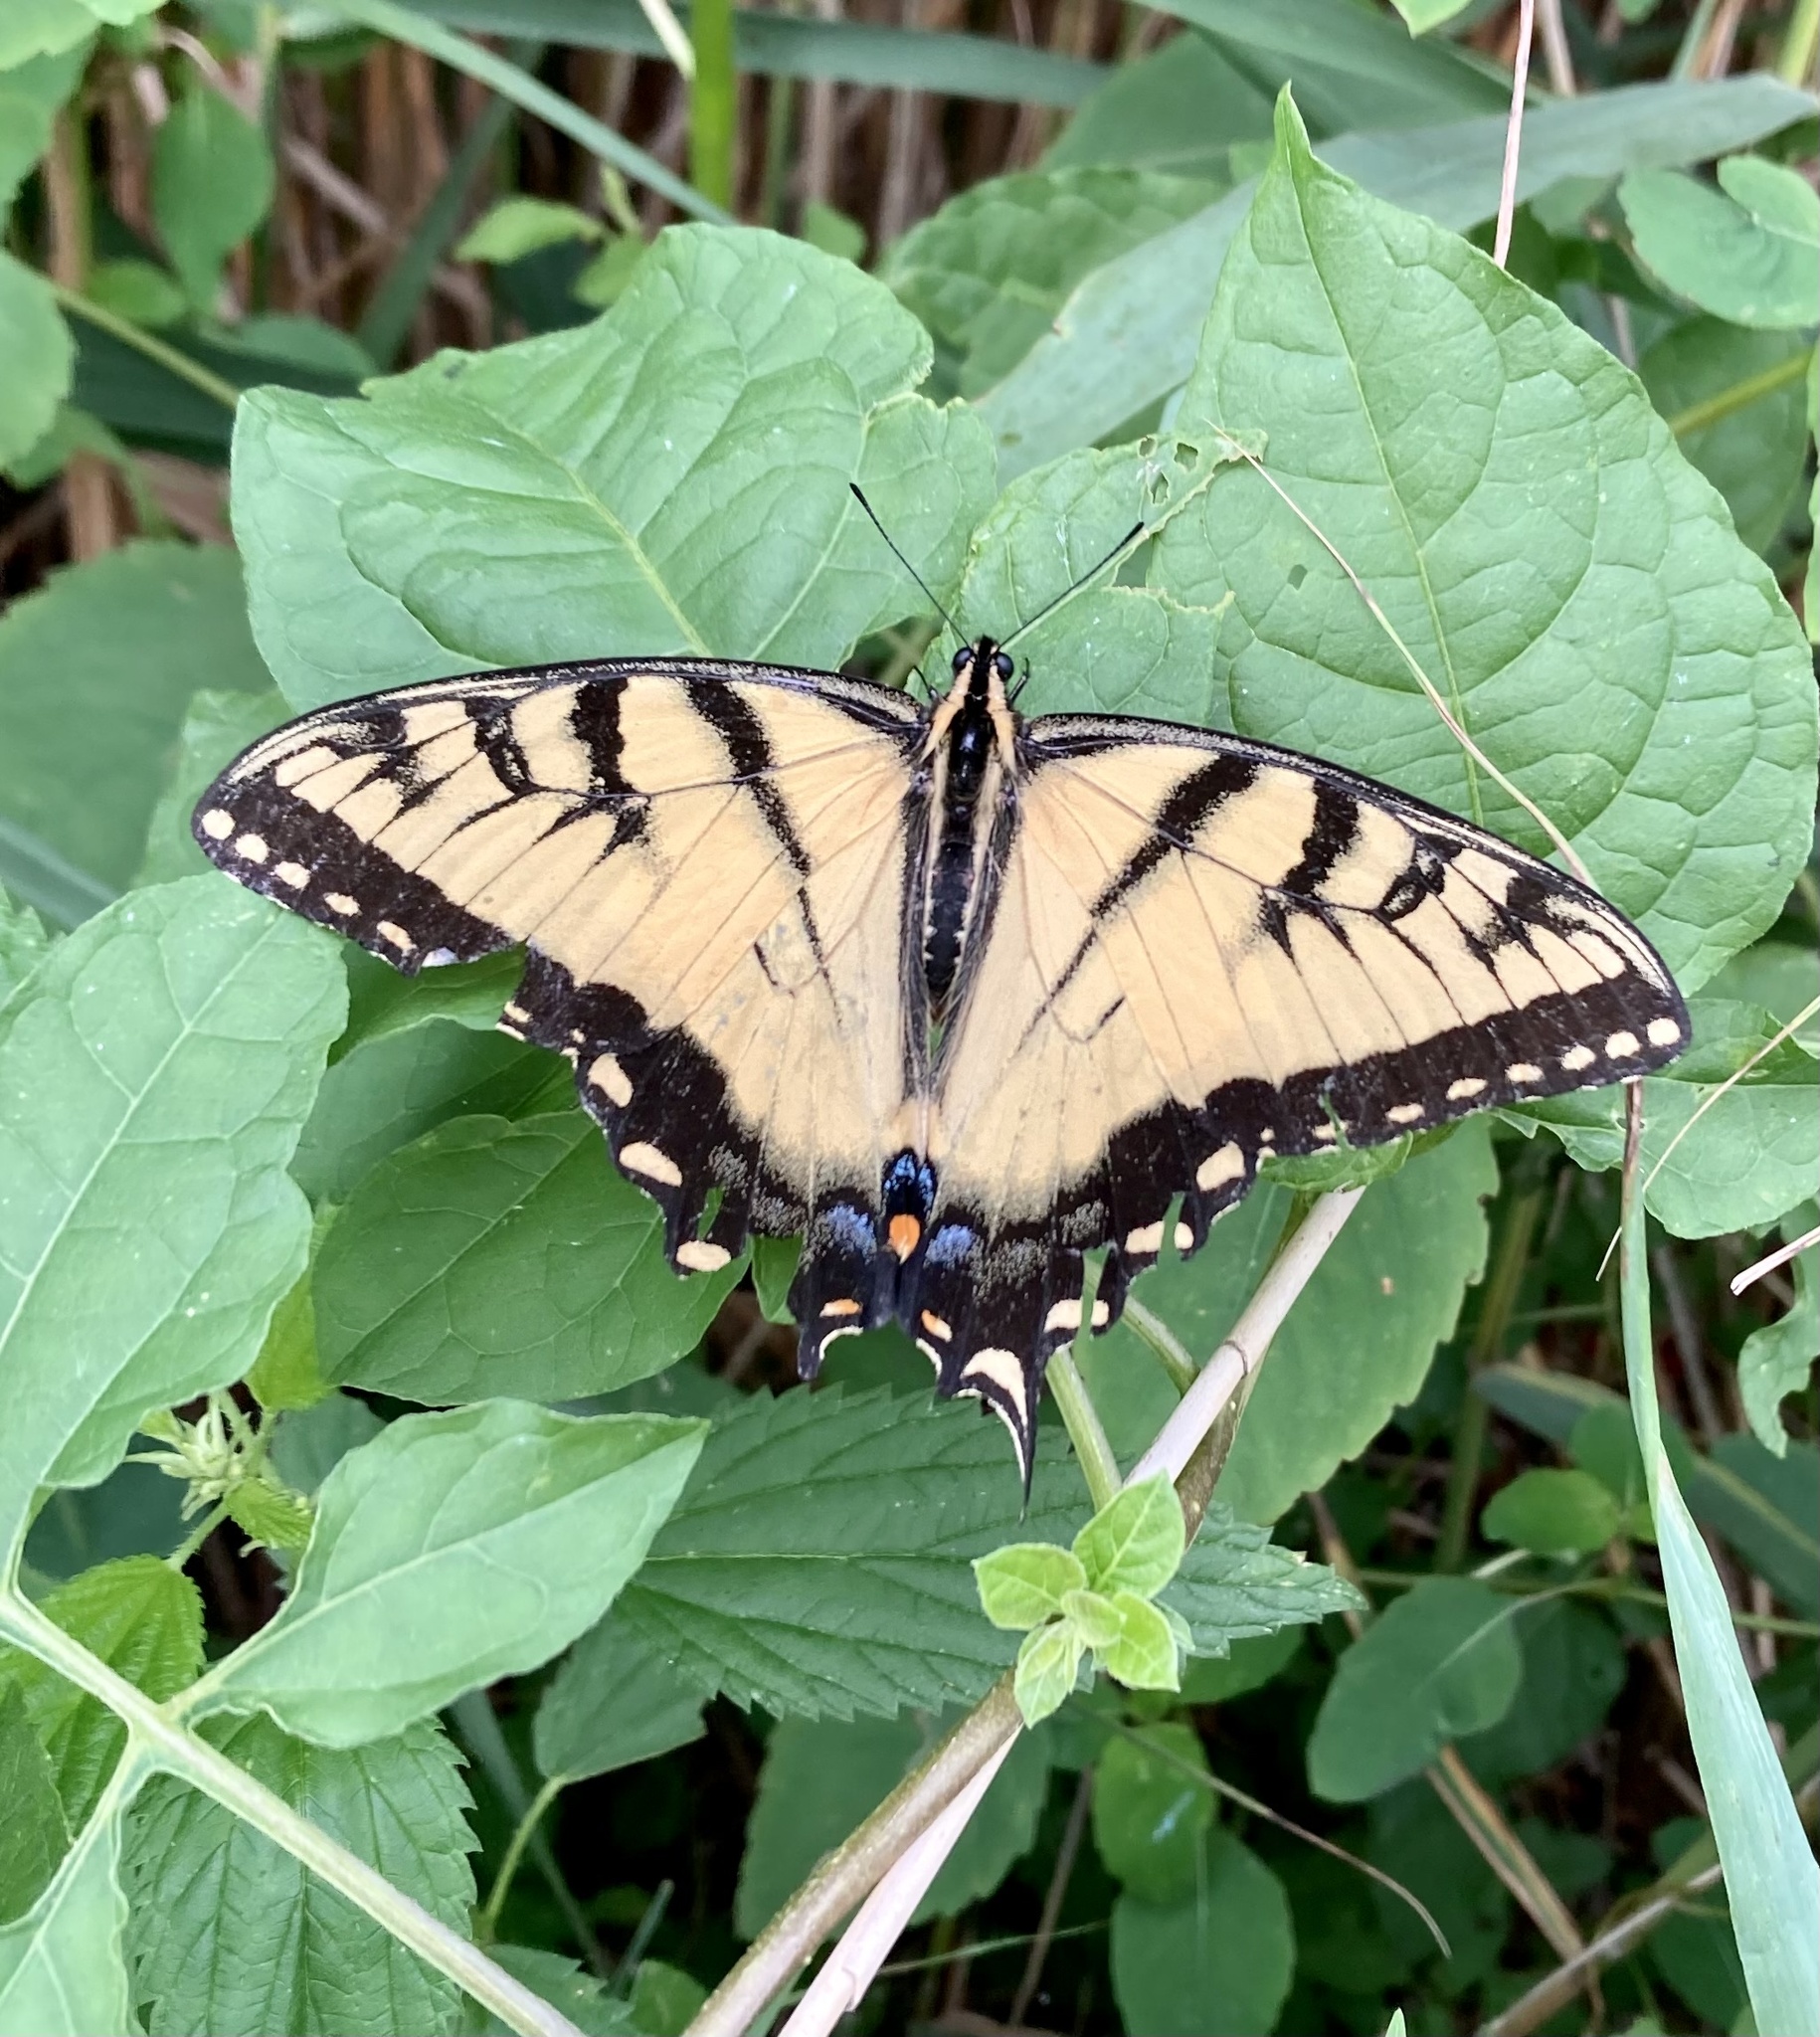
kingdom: Animalia
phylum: Arthropoda
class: Insecta
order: Lepidoptera
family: Papilionidae
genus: Papilio
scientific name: Papilio glaucus
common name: Tiger swallowtail
